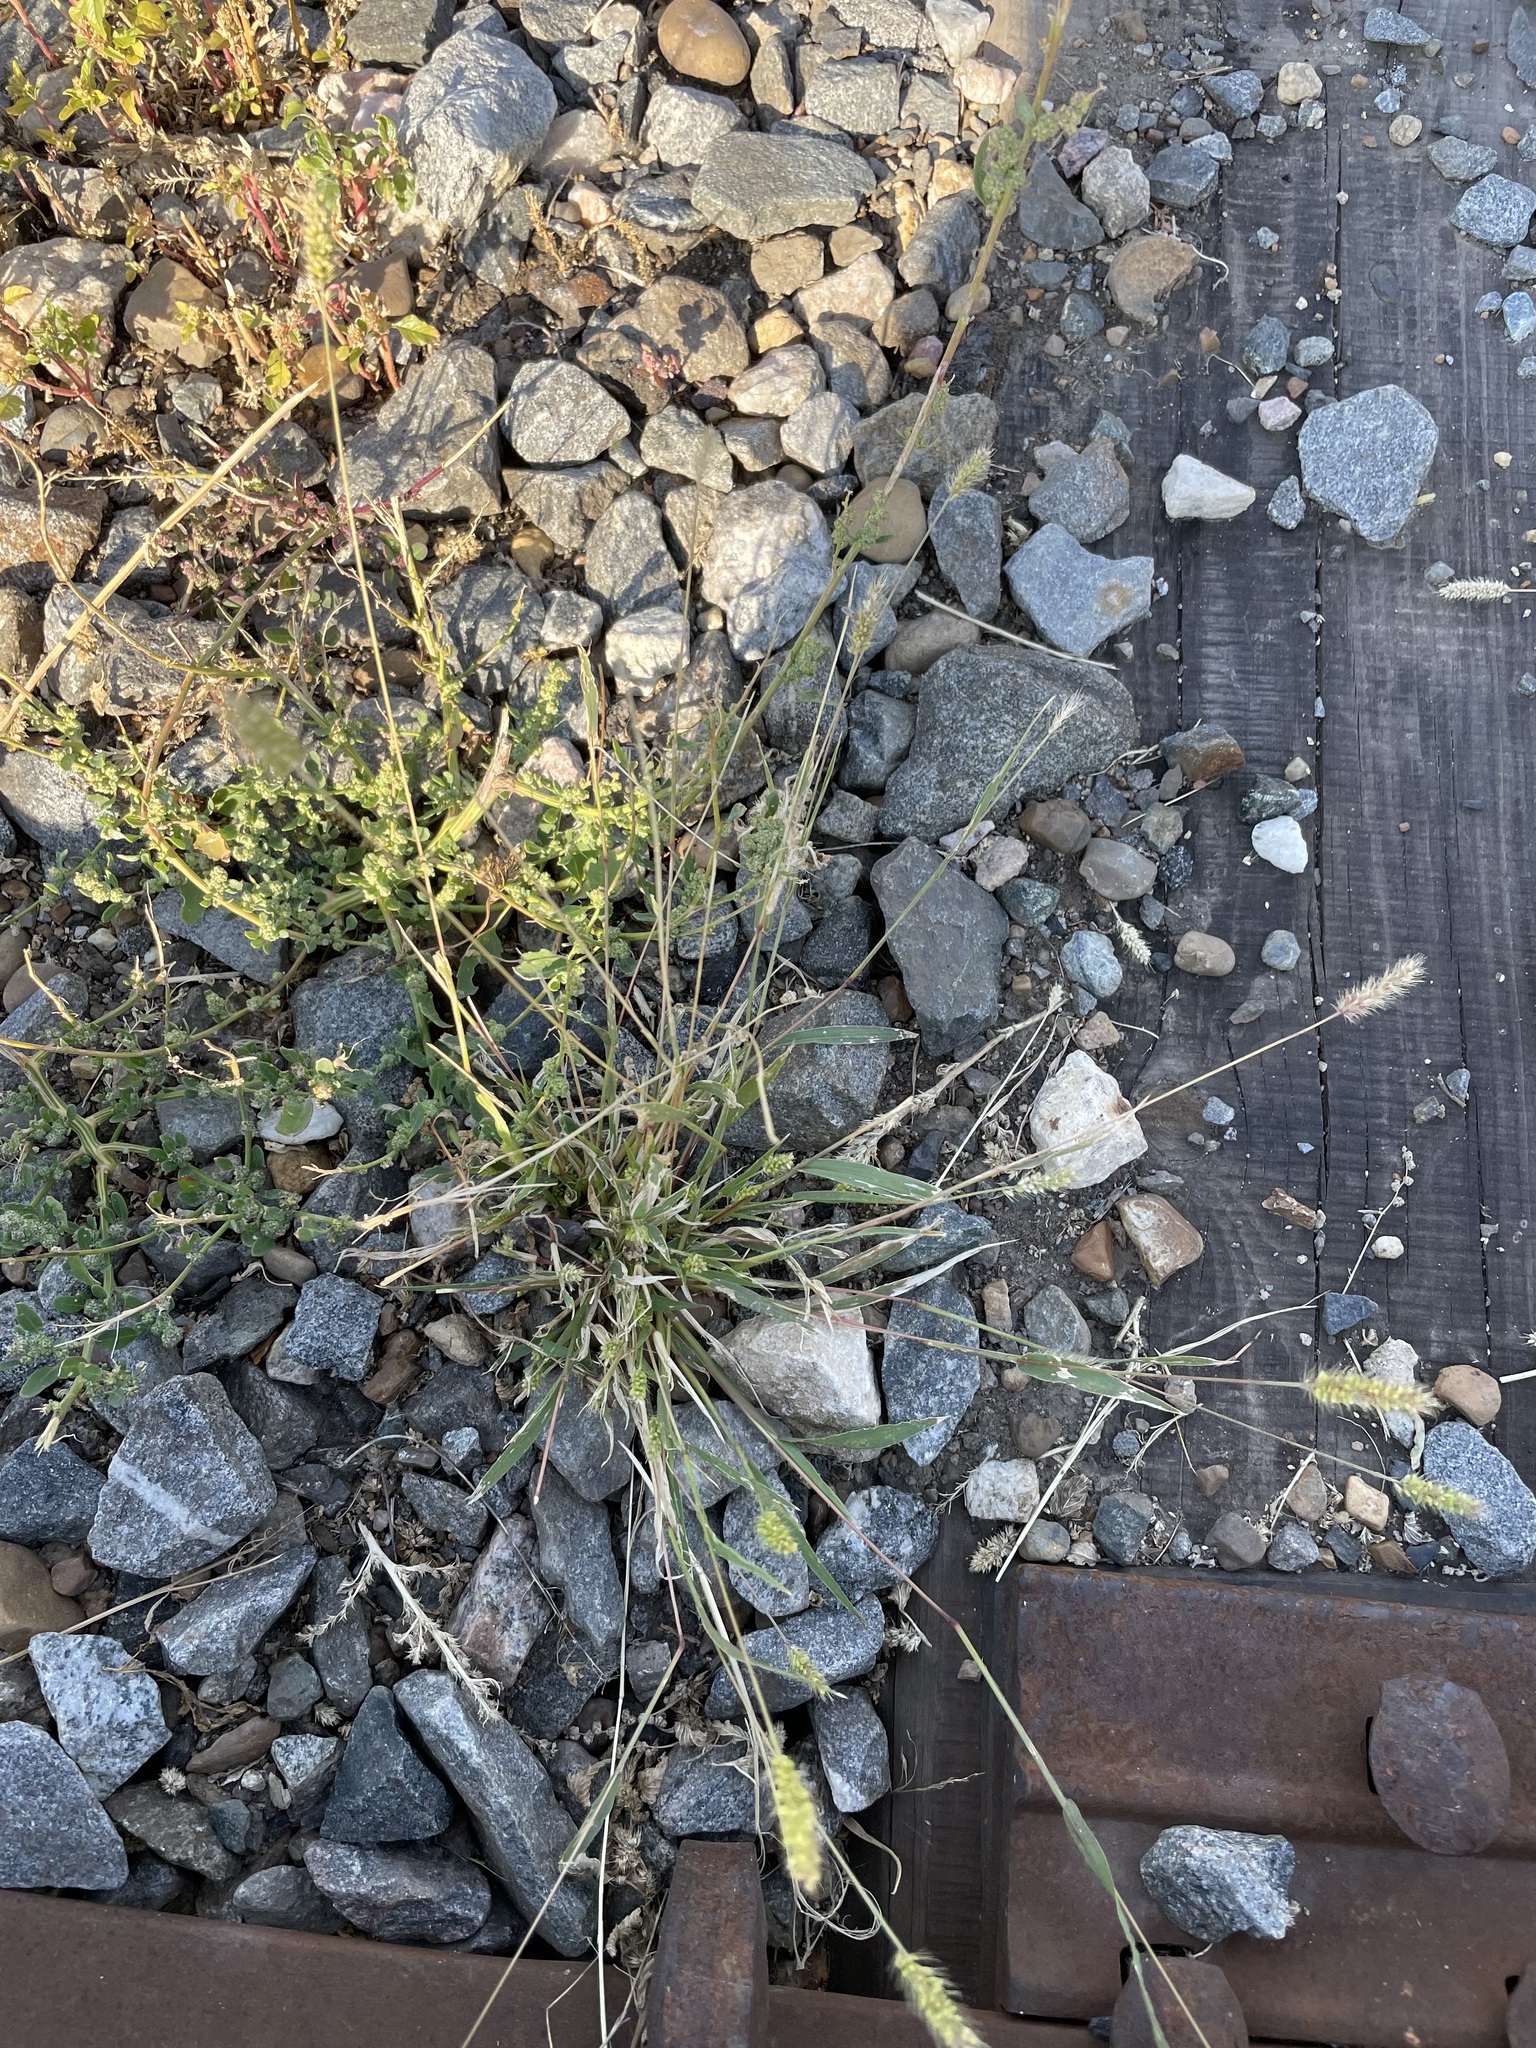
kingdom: Plantae
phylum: Tracheophyta
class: Liliopsida
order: Poales
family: Poaceae
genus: Setaria
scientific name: Setaria viridis
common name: Green bristlegrass
